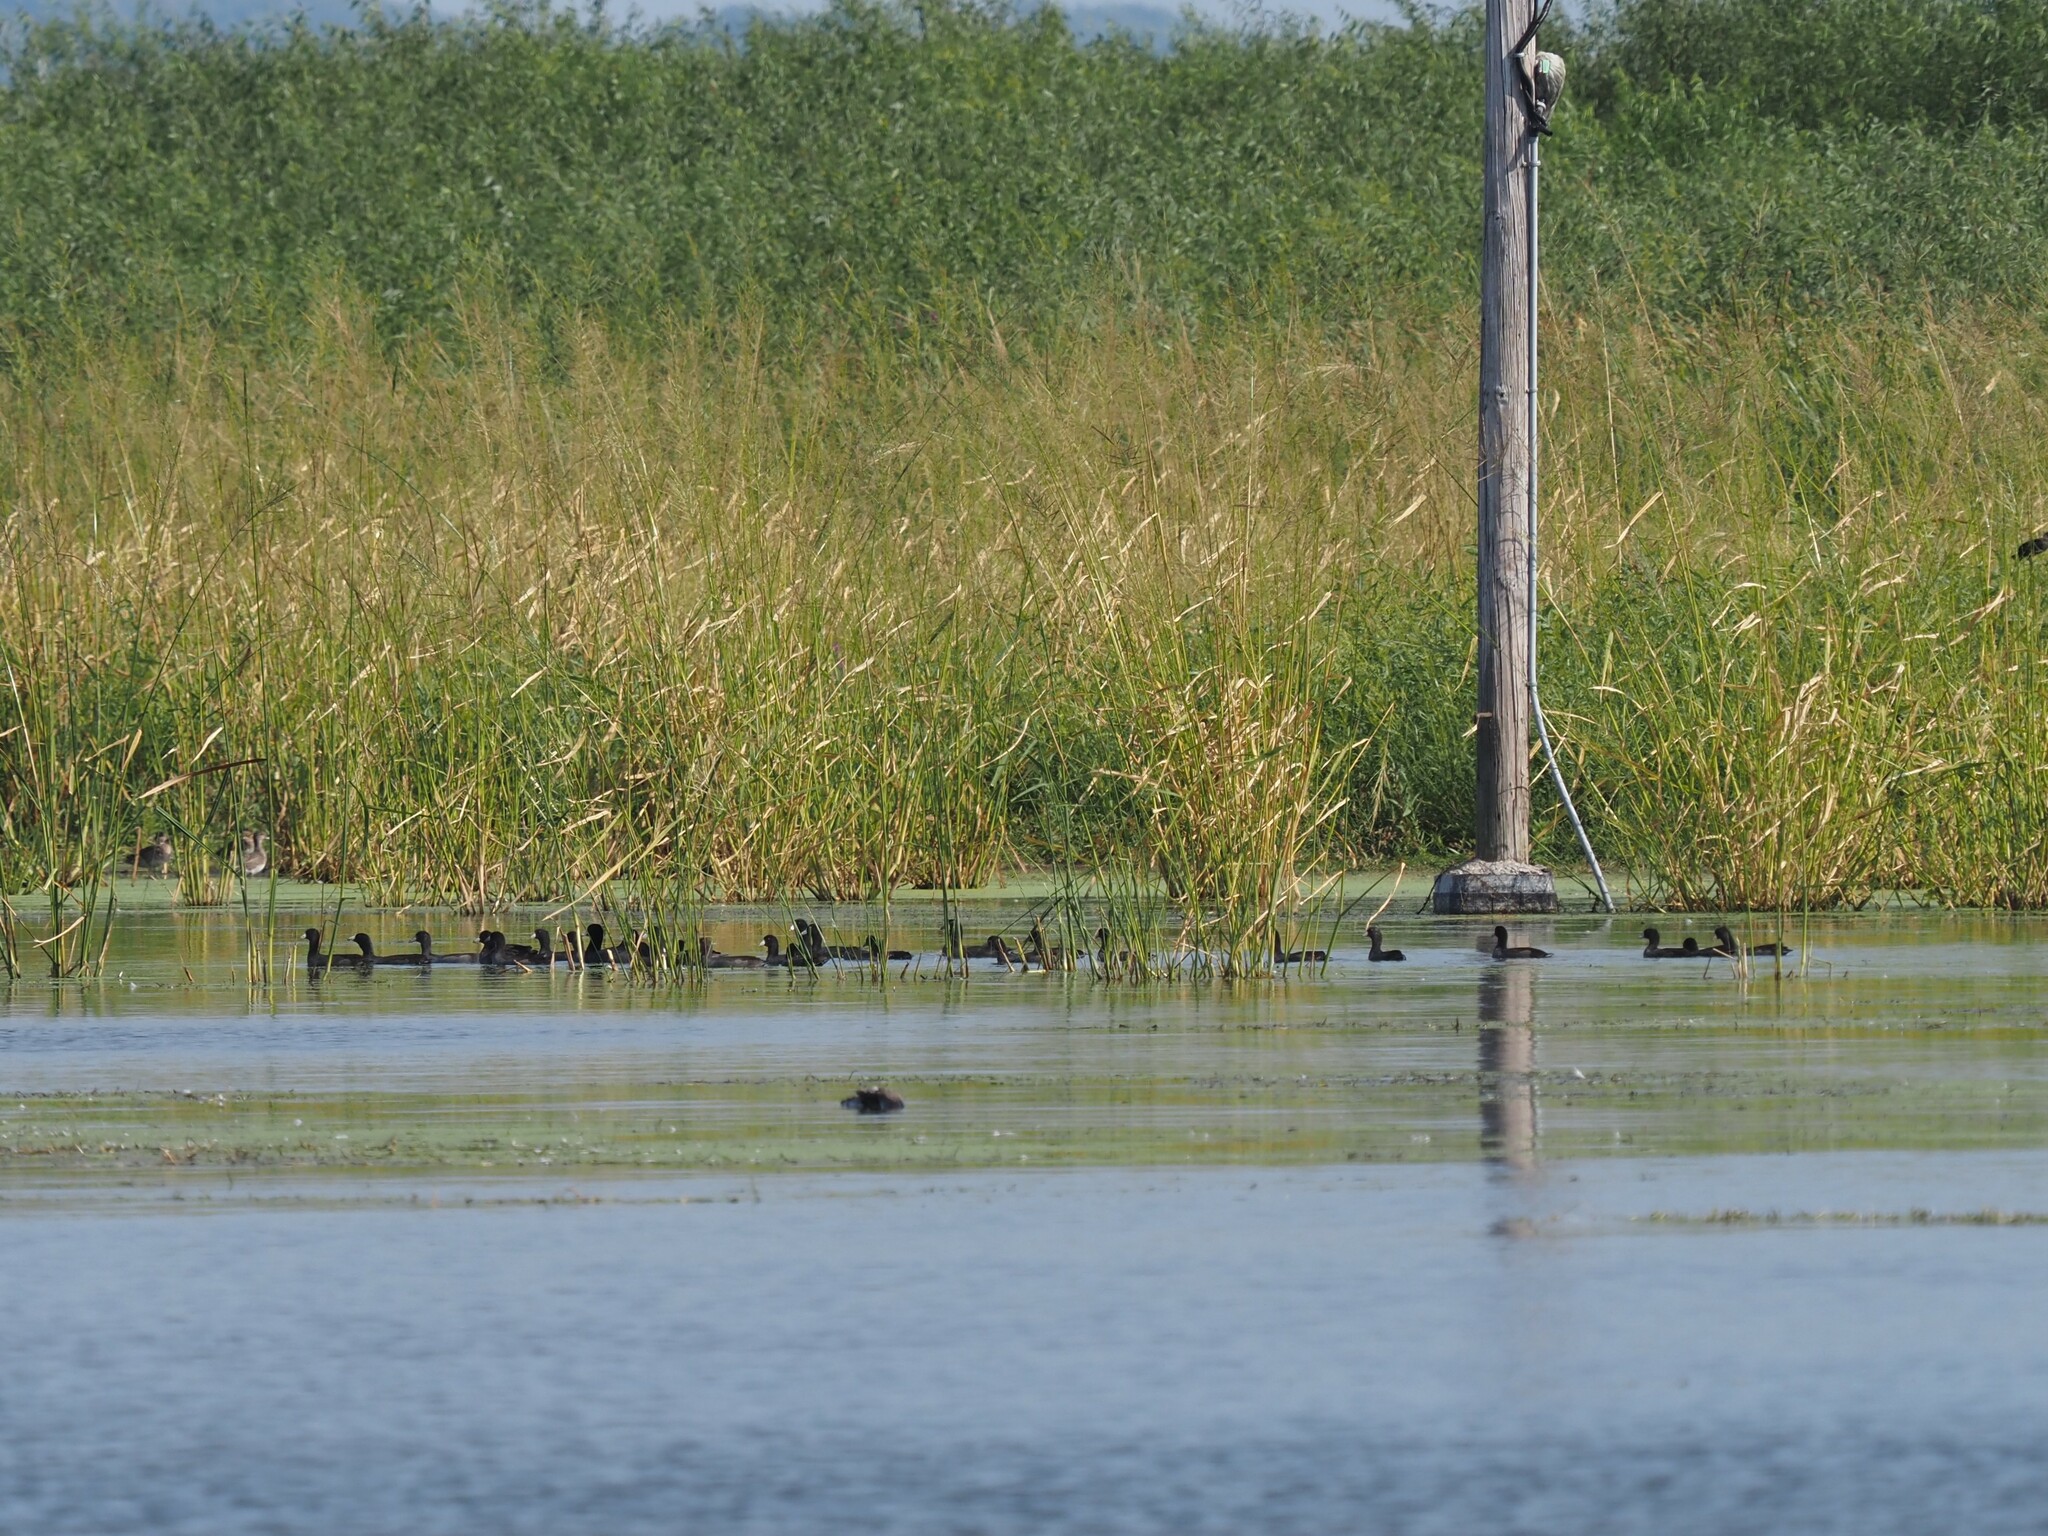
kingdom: Animalia
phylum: Chordata
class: Aves
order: Gruiformes
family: Rallidae
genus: Fulica
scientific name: Fulica americana
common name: American coot
